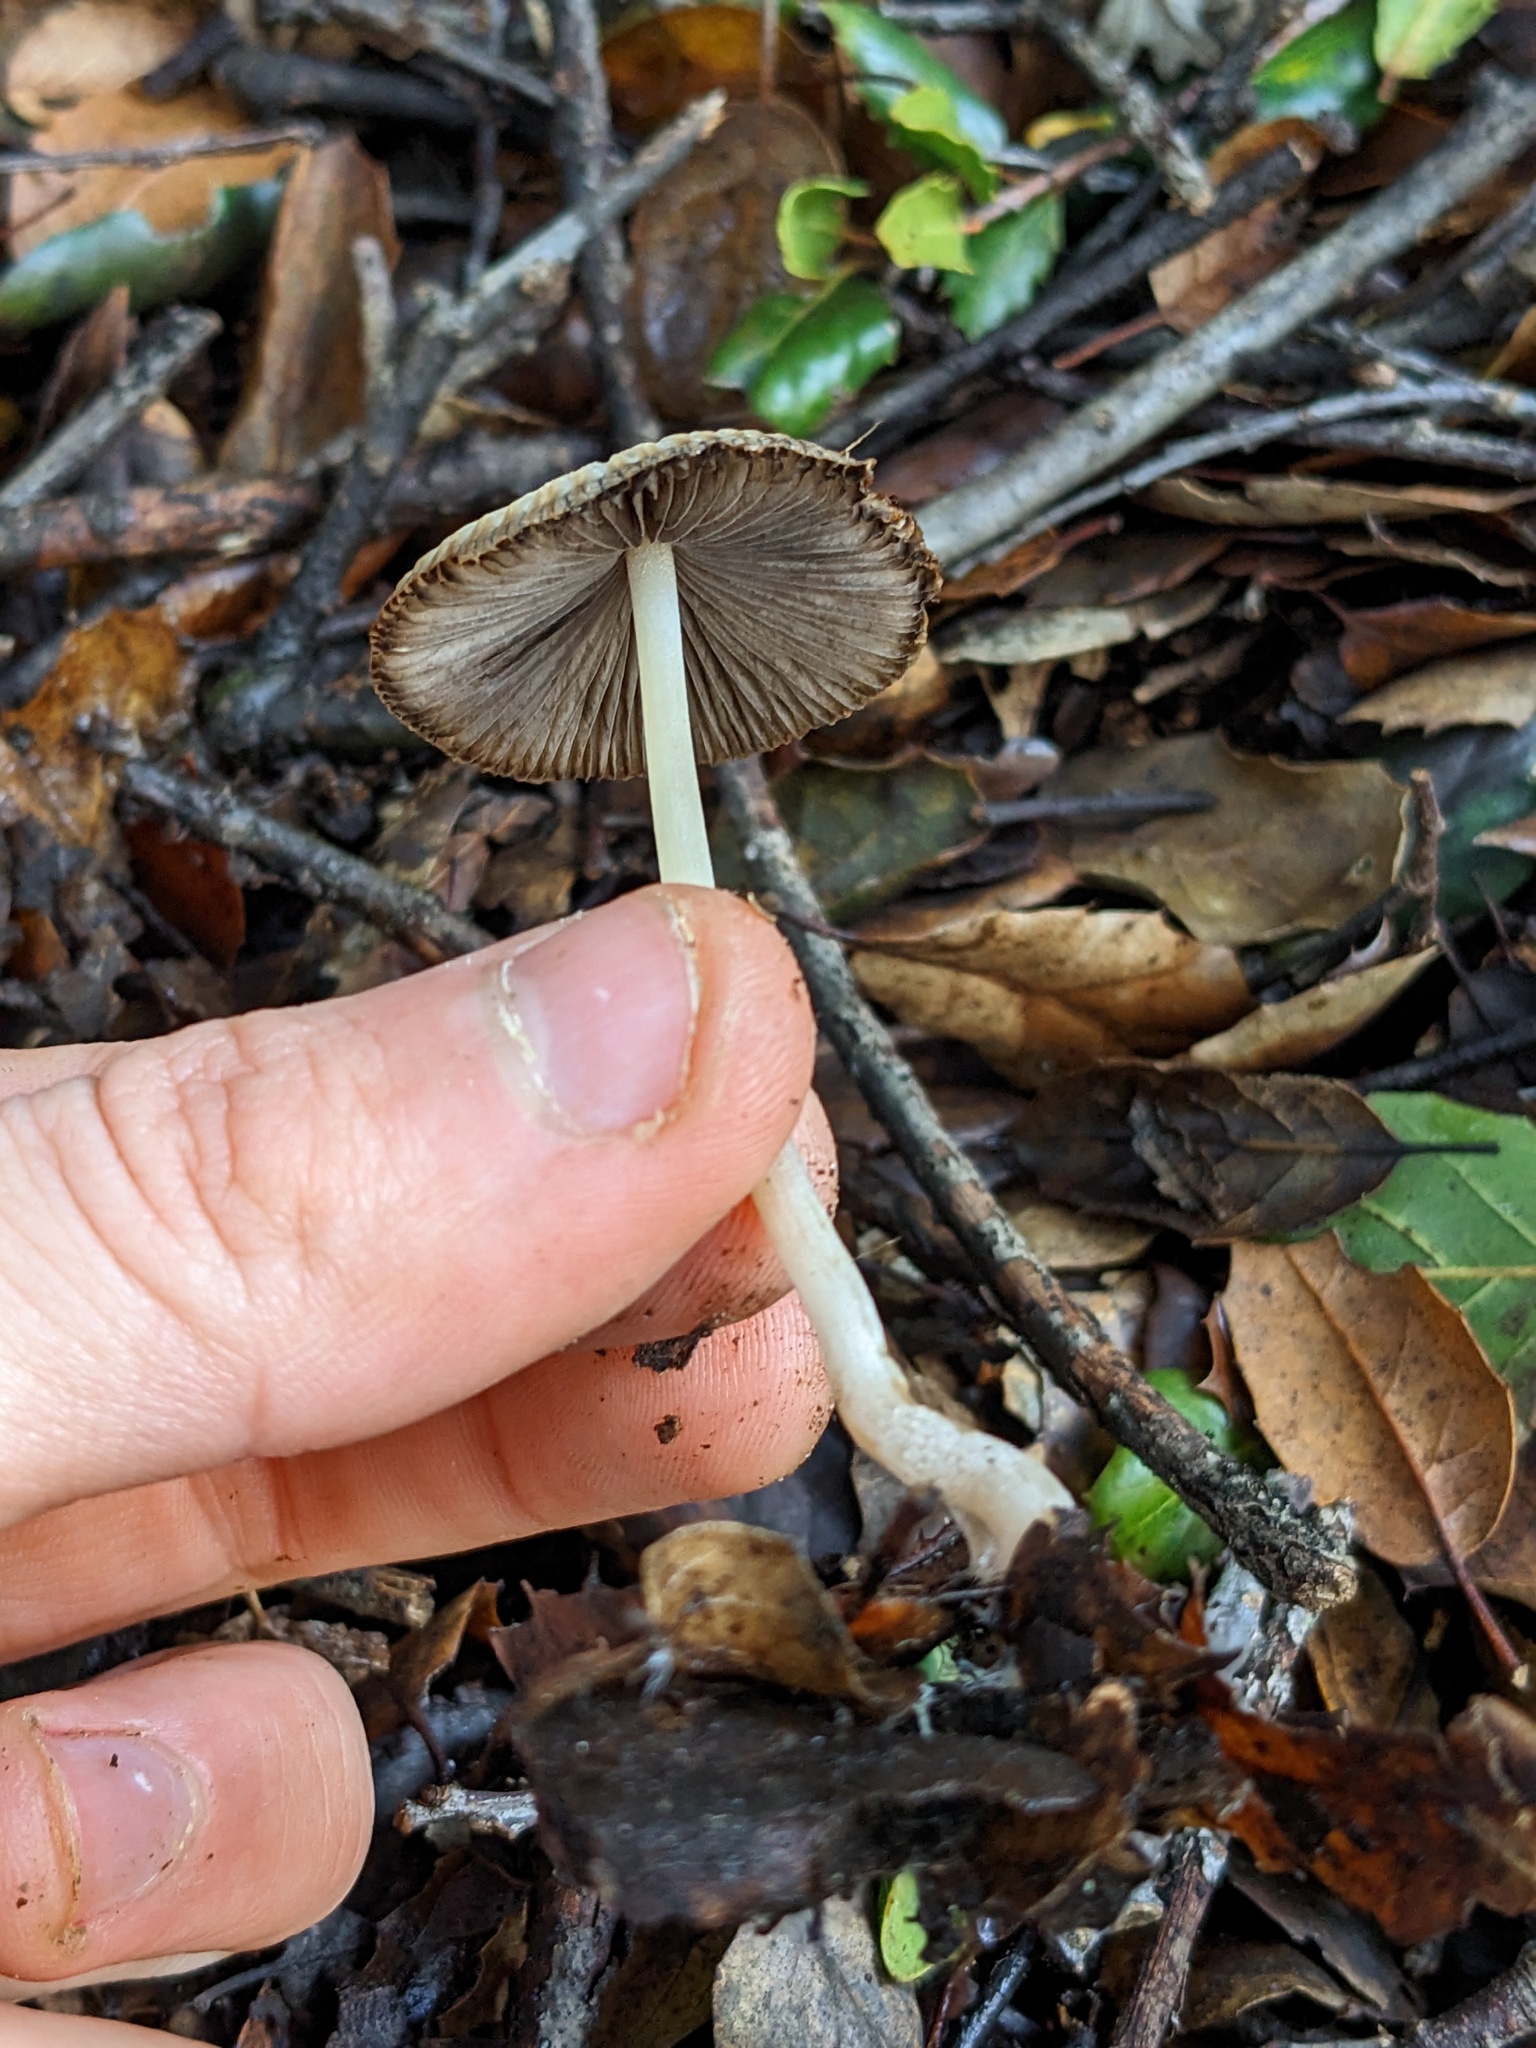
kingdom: Fungi
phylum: Basidiomycota
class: Agaricomycetes
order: Agaricales
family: Psathyrellaceae
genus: Tulosesus
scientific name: Tulosesus impatiens
